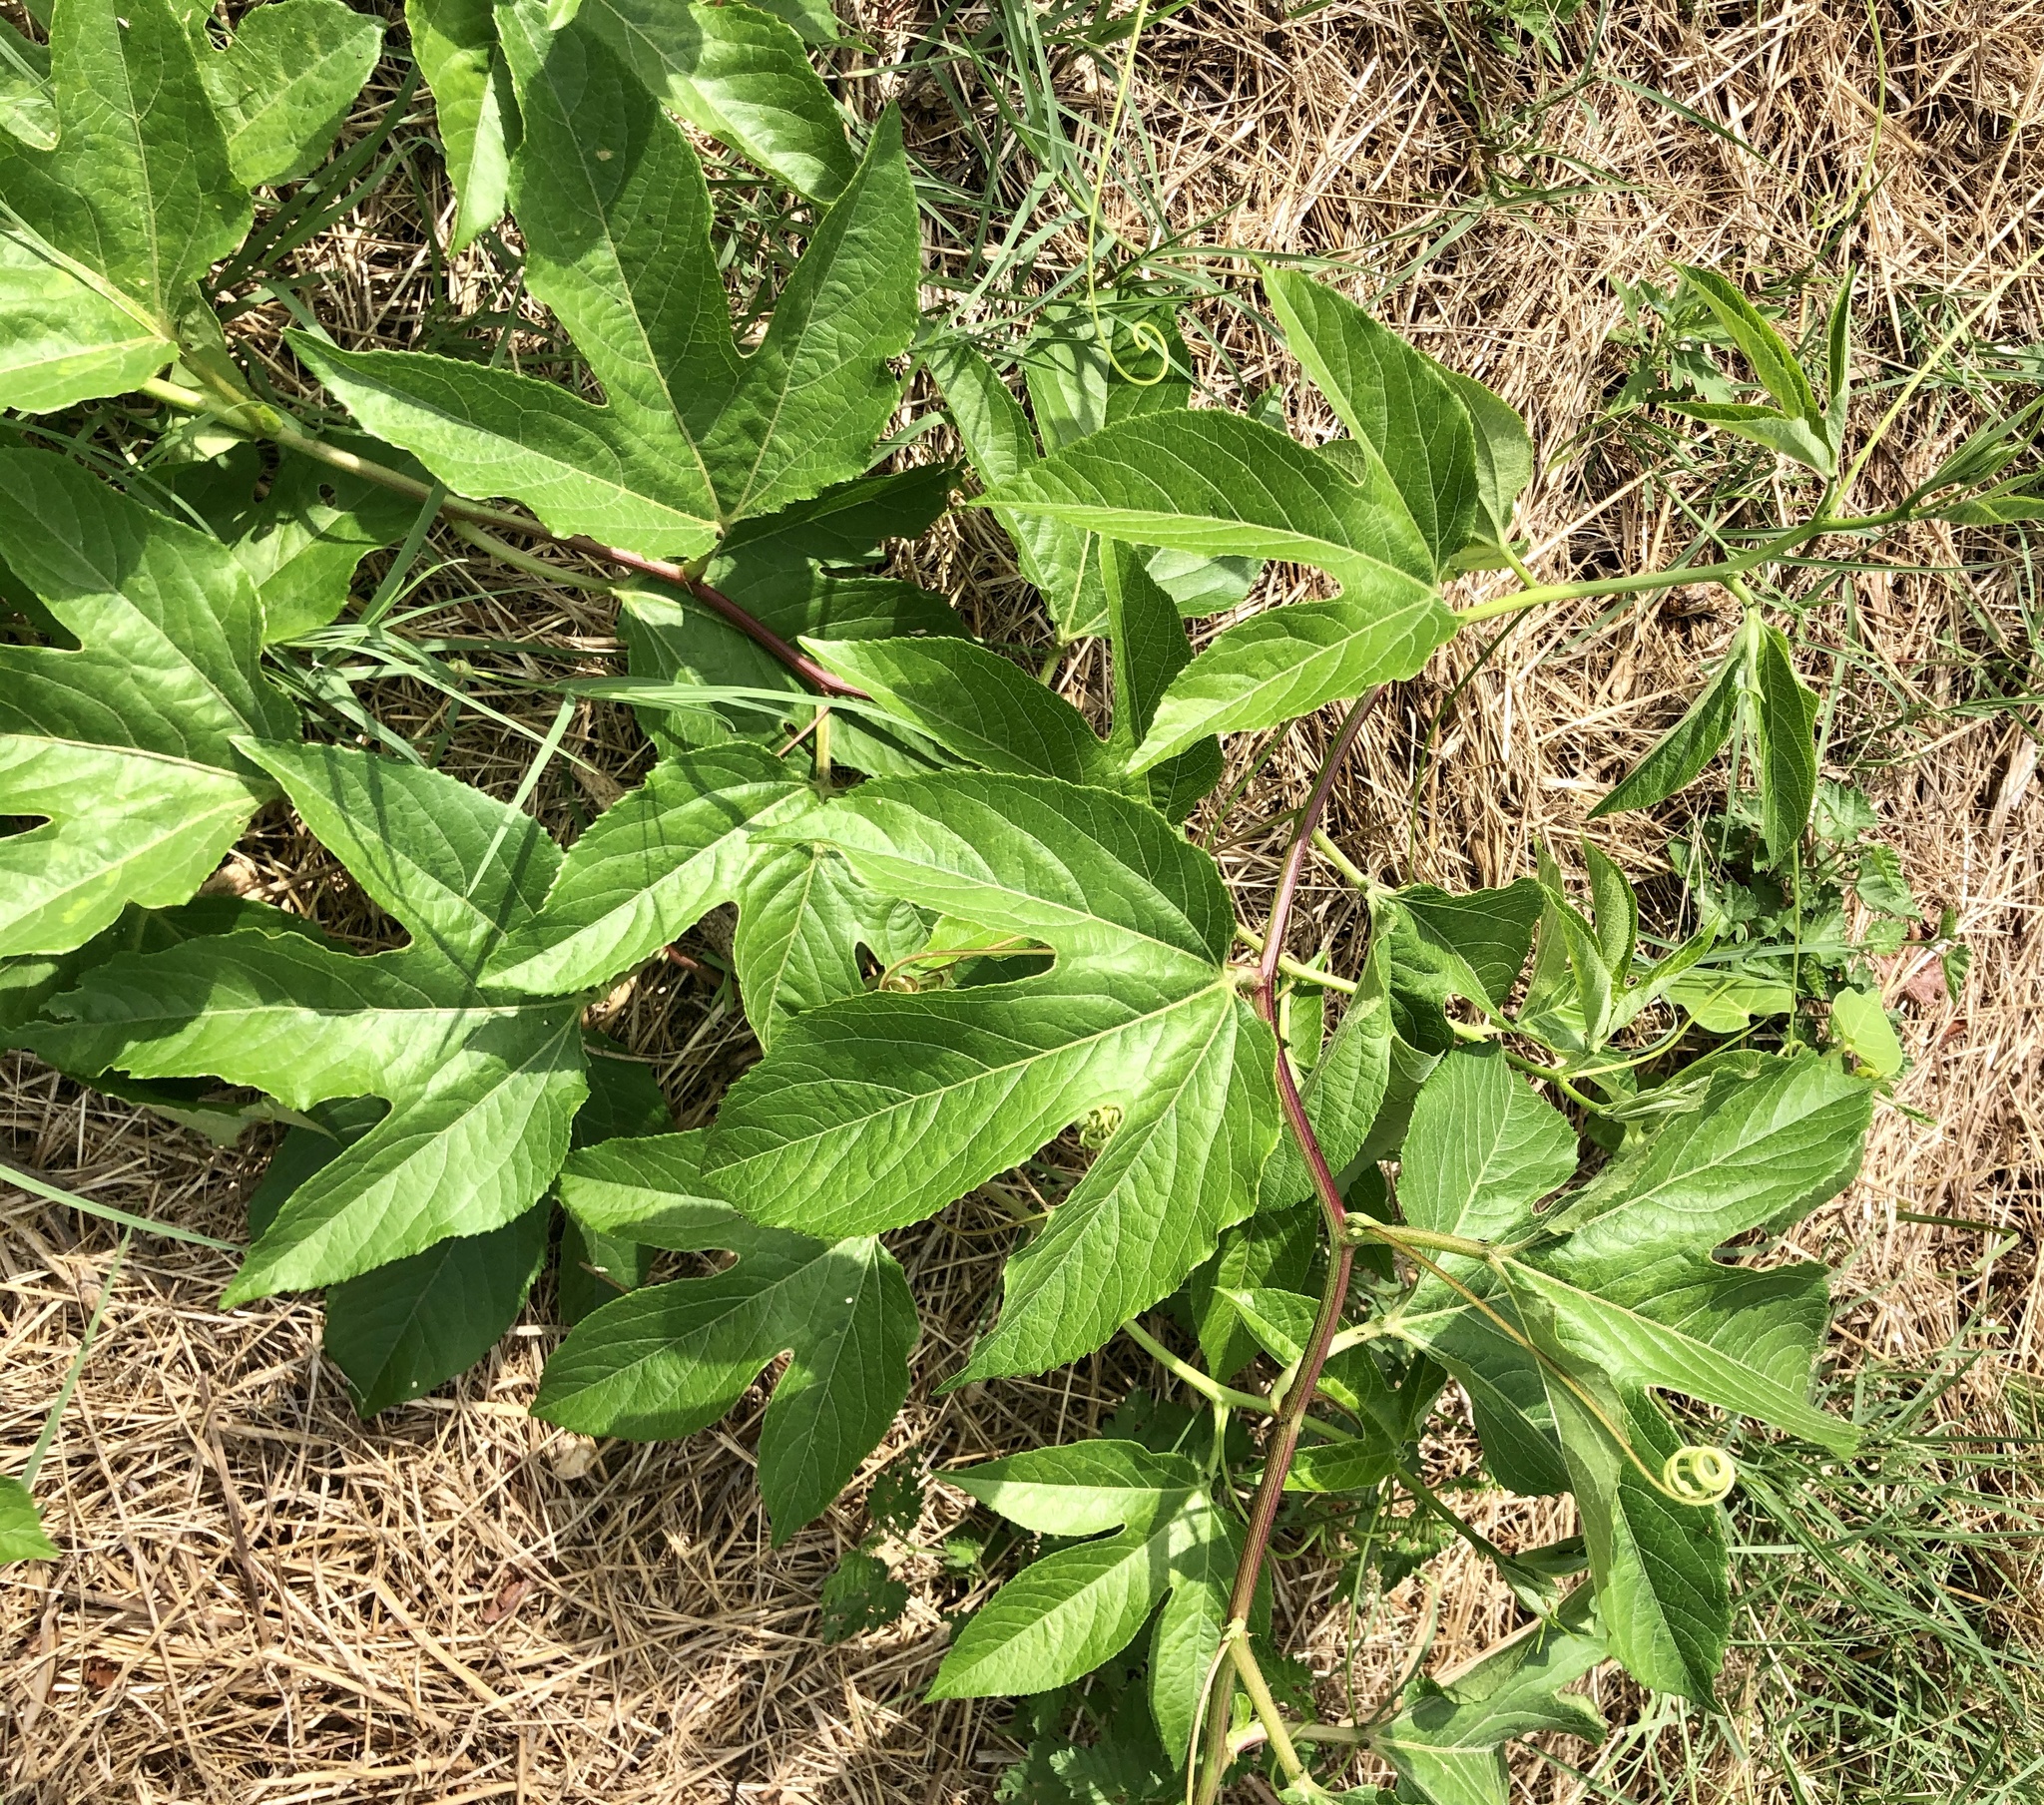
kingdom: Plantae
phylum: Tracheophyta
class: Magnoliopsida
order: Malpighiales
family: Passifloraceae
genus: Passiflora
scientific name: Passiflora incarnata
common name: Apricot-vine
